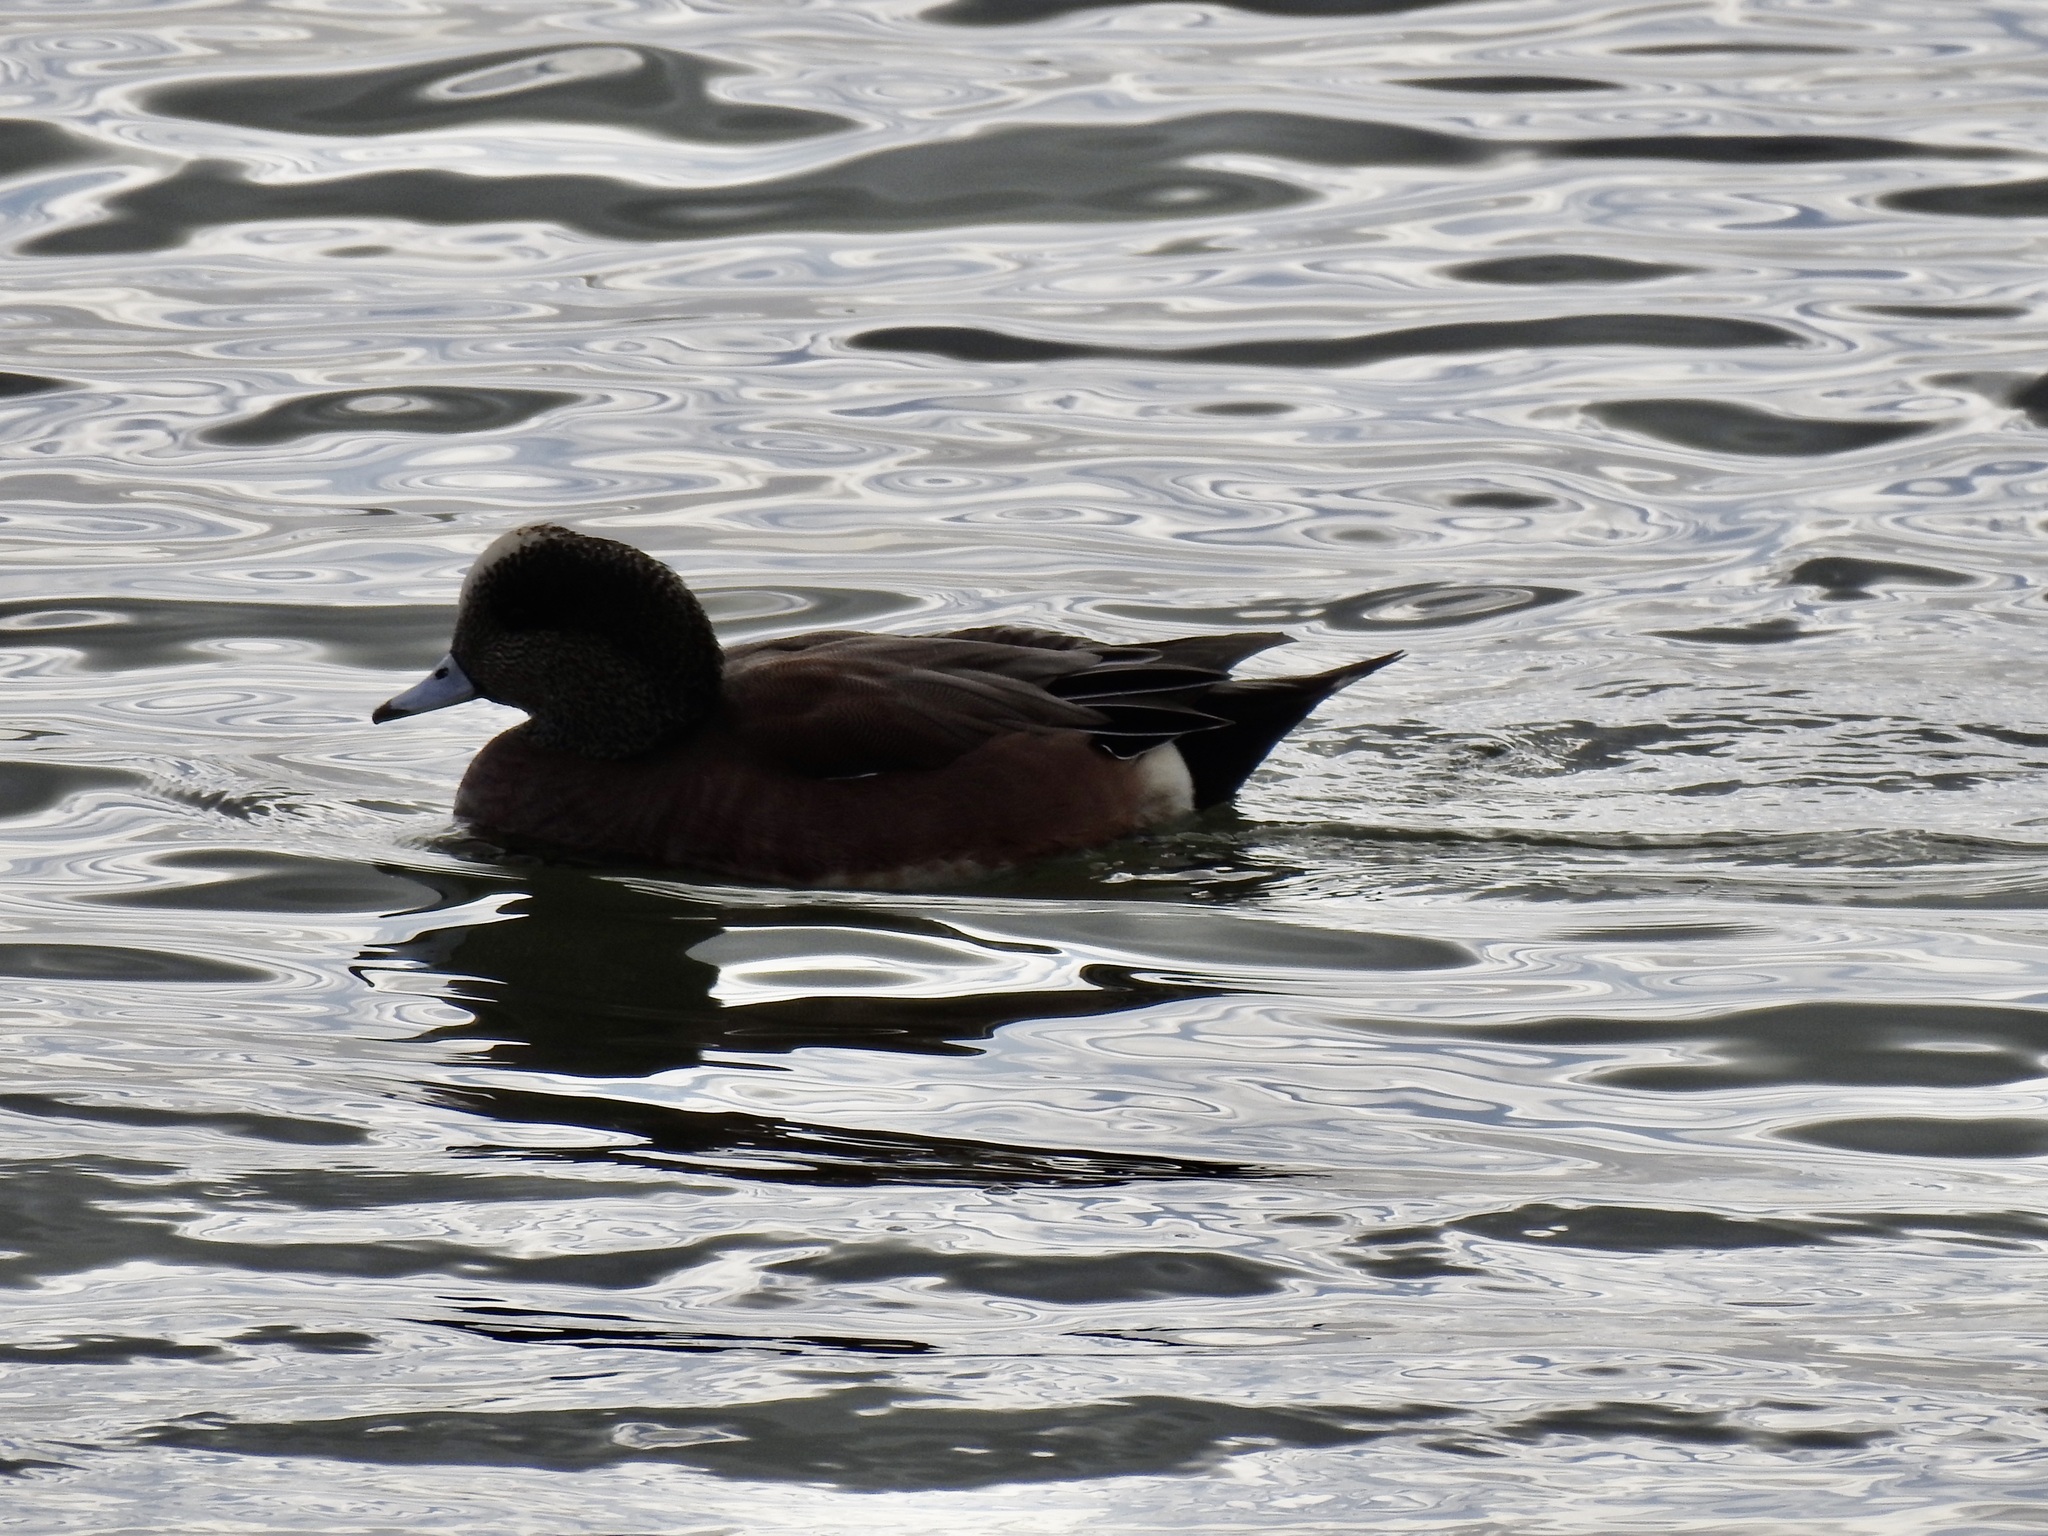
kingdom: Animalia
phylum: Chordata
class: Aves
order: Anseriformes
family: Anatidae
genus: Mareca
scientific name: Mareca americana
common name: American wigeon
